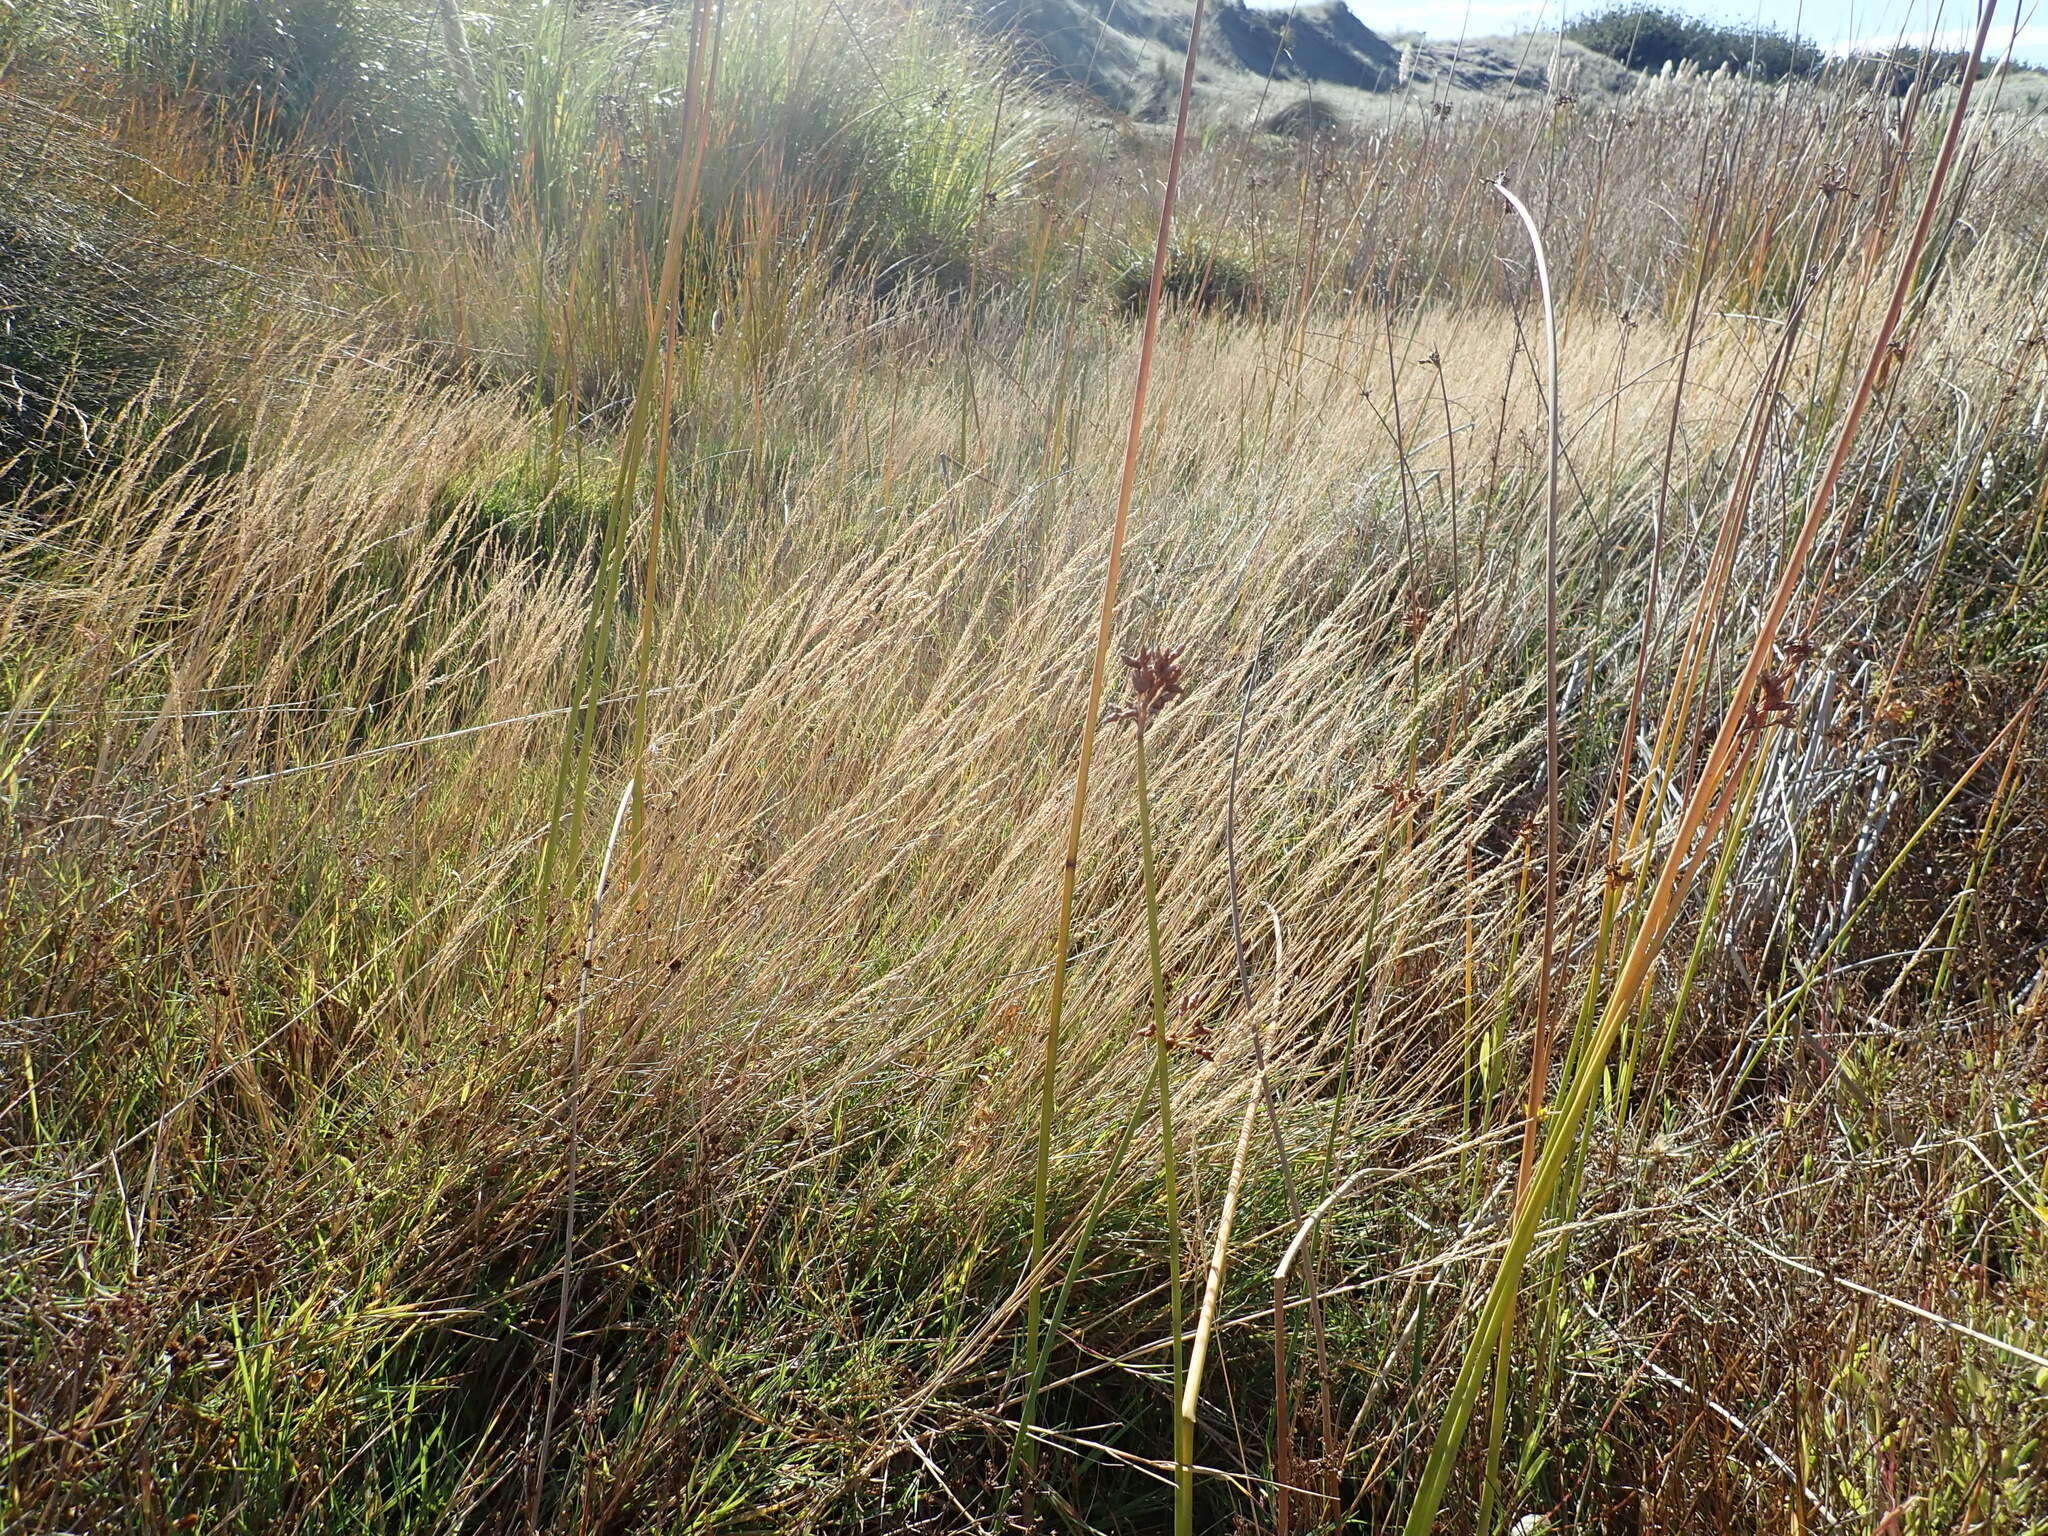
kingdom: Plantae
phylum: Tracheophyta
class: Liliopsida
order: Poales
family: Cyperaceae
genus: Schoenoplectus
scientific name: Schoenoplectus tabernaemontani
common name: Grey club-rush
